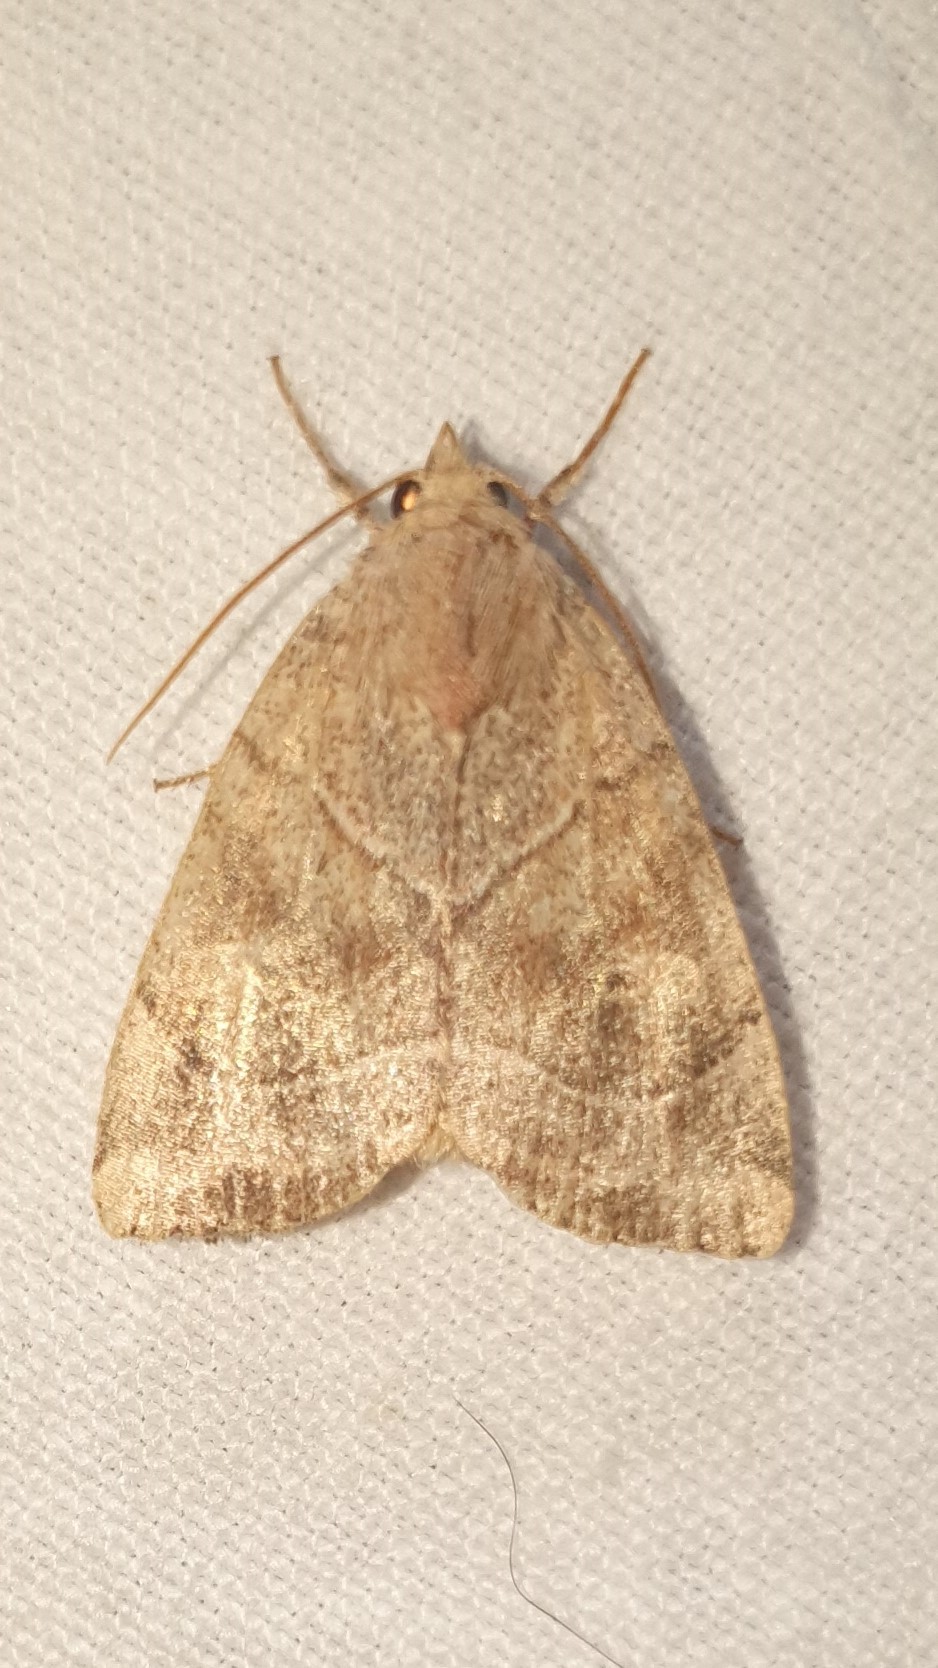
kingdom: Animalia
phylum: Arthropoda
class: Insecta
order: Lepidoptera
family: Noctuidae
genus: Cosmia
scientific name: Cosmia trapezina
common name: Dun-bar
